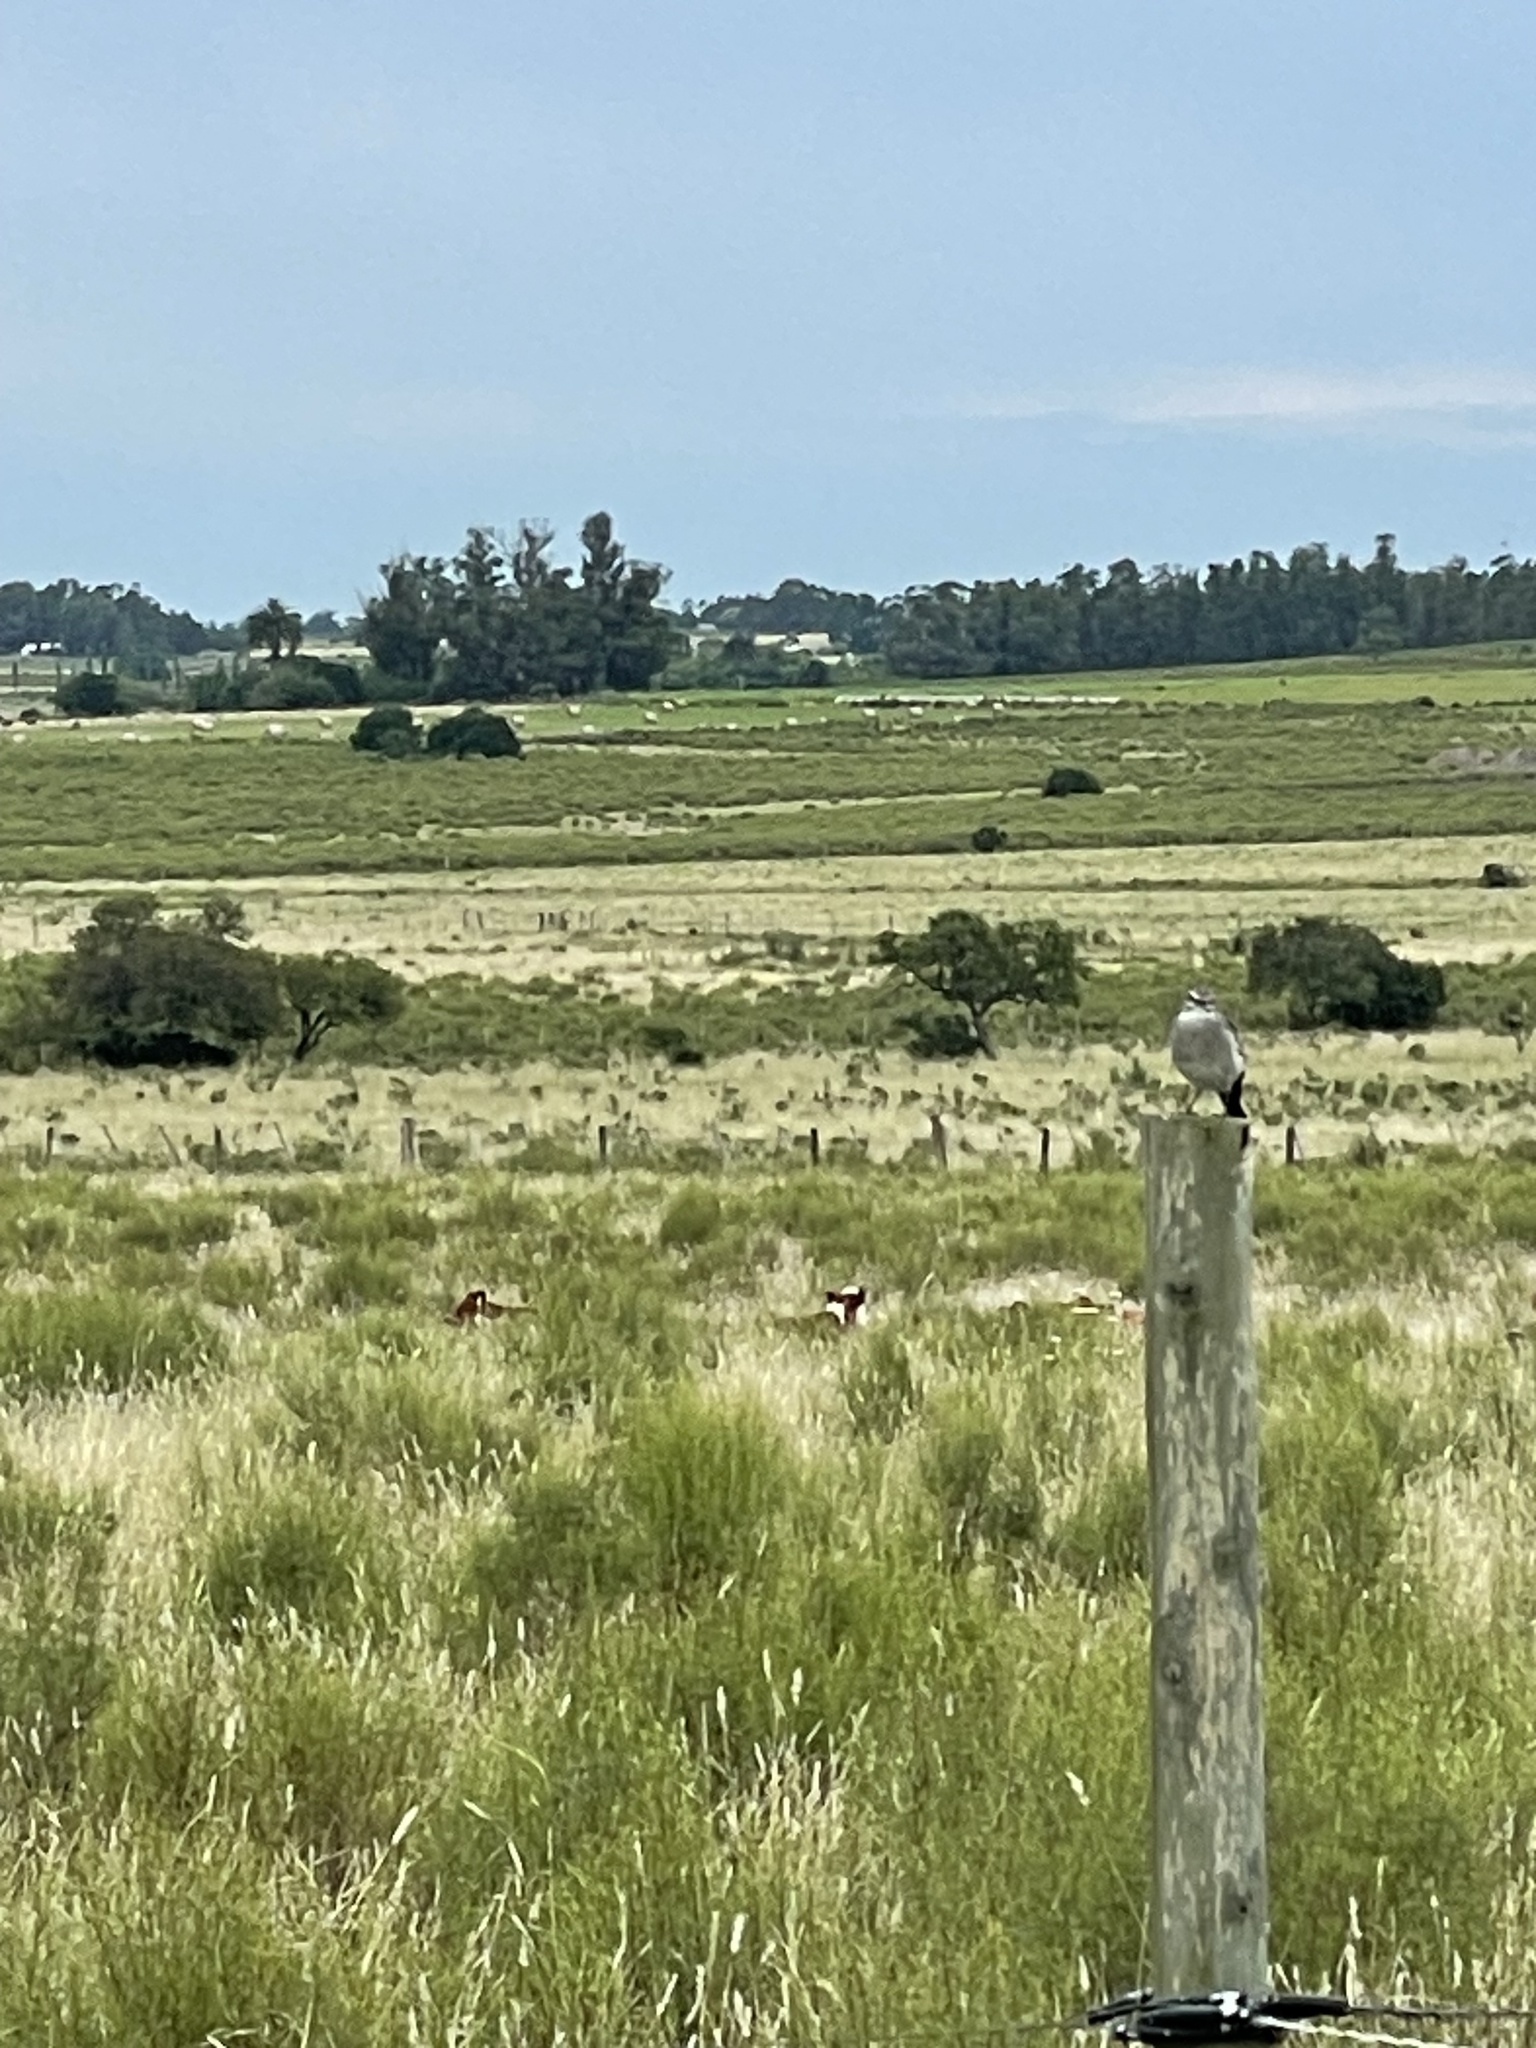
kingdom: Animalia
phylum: Chordata
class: Aves
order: Passeriformes
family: Tyrannidae
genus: Xolmis
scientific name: Xolmis cinereus
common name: Grey monjita
